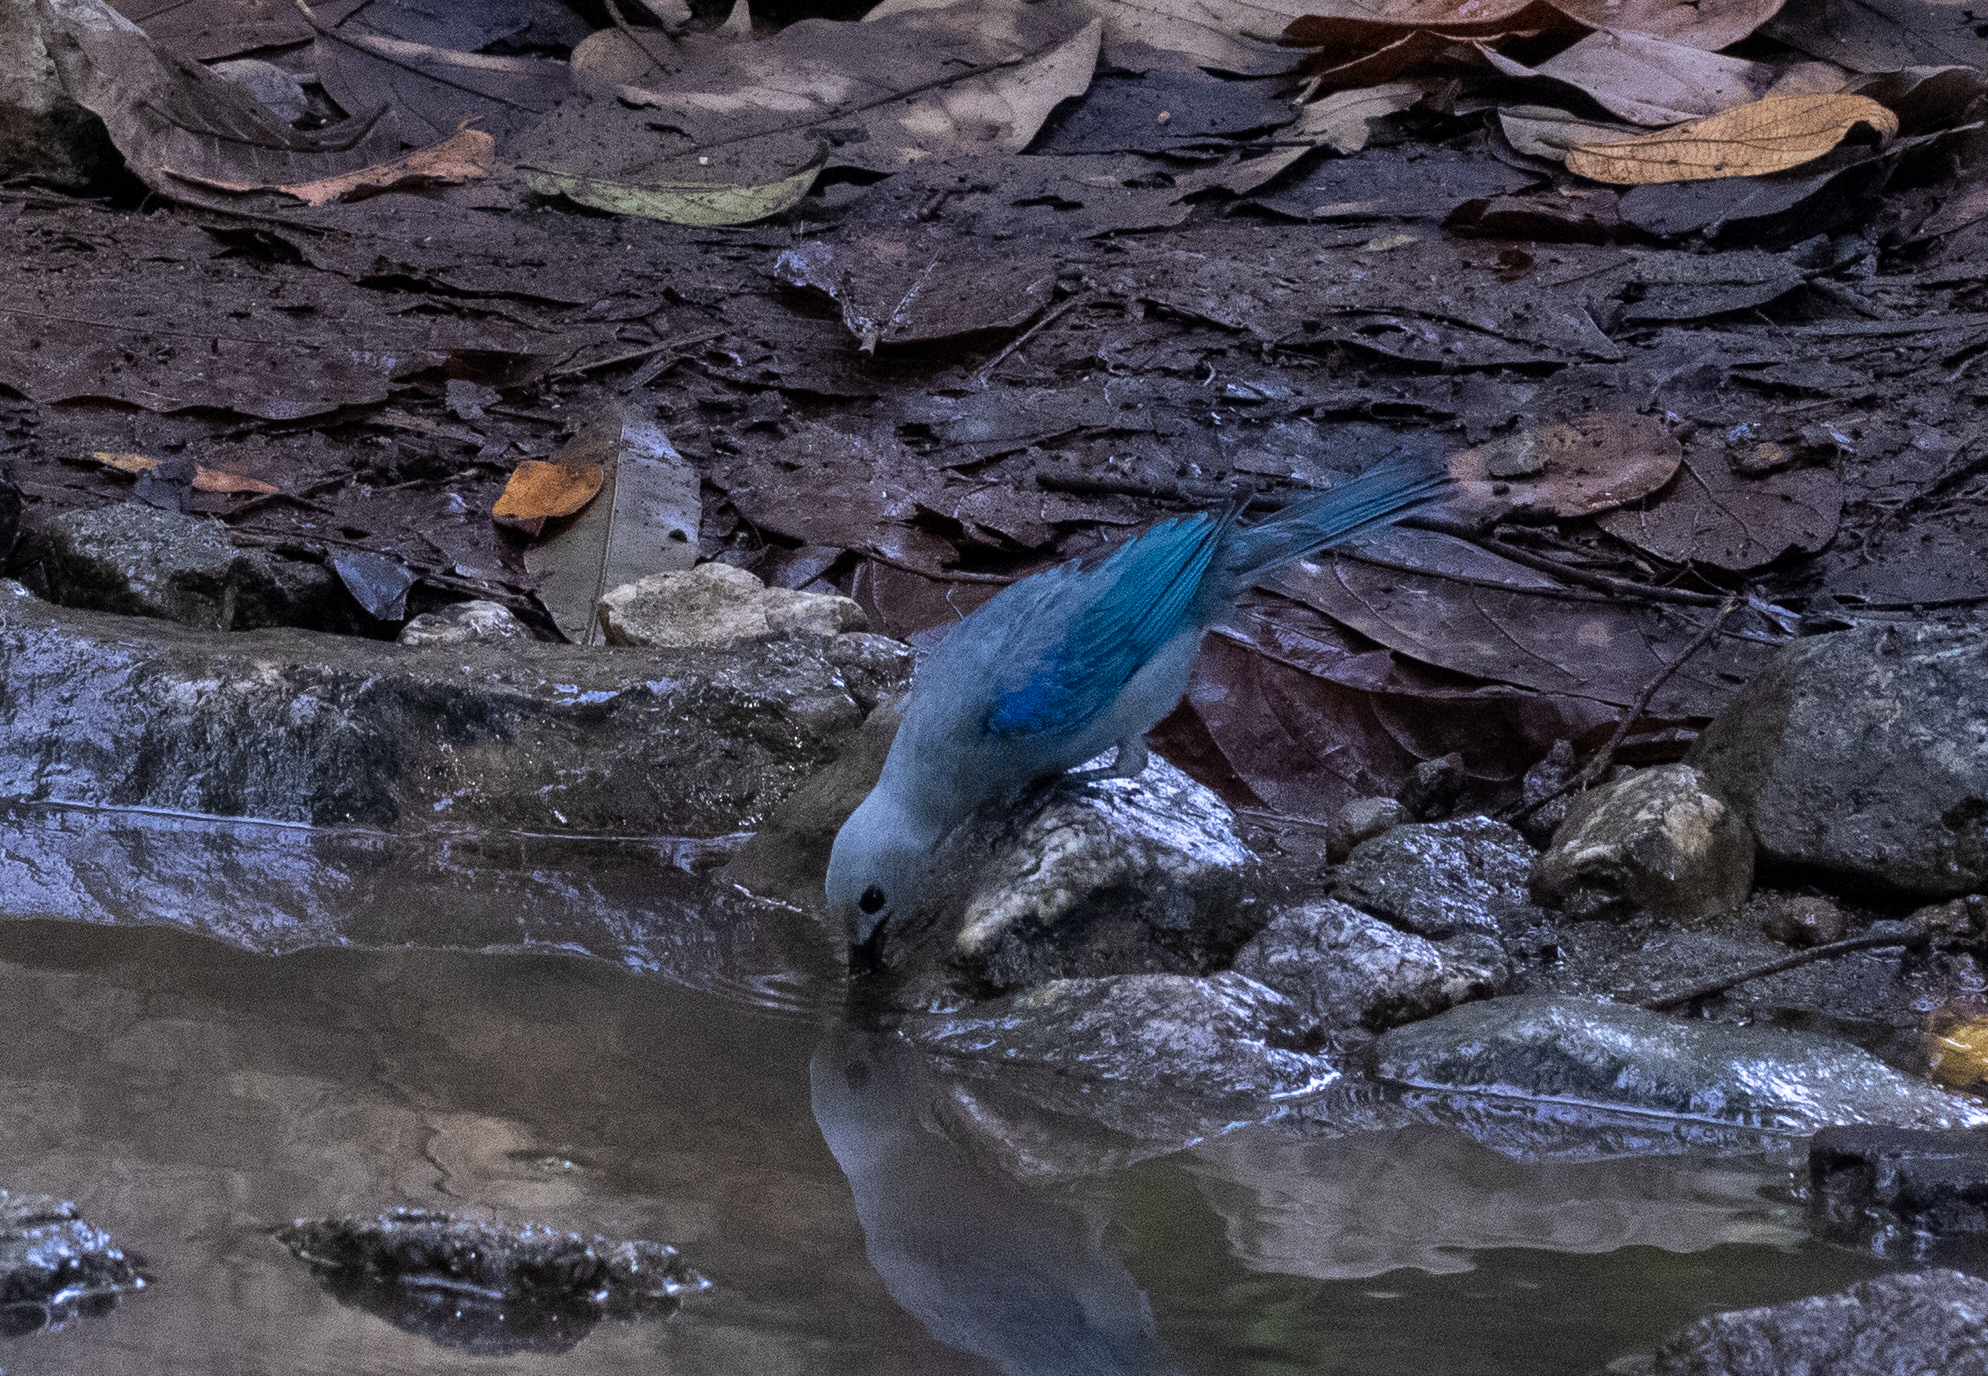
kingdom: Animalia
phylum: Chordata
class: Aves
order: Passeriformes
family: Thraupidae
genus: Thraupis
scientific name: Thraupis episcopus
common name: Blue-grey tanager
